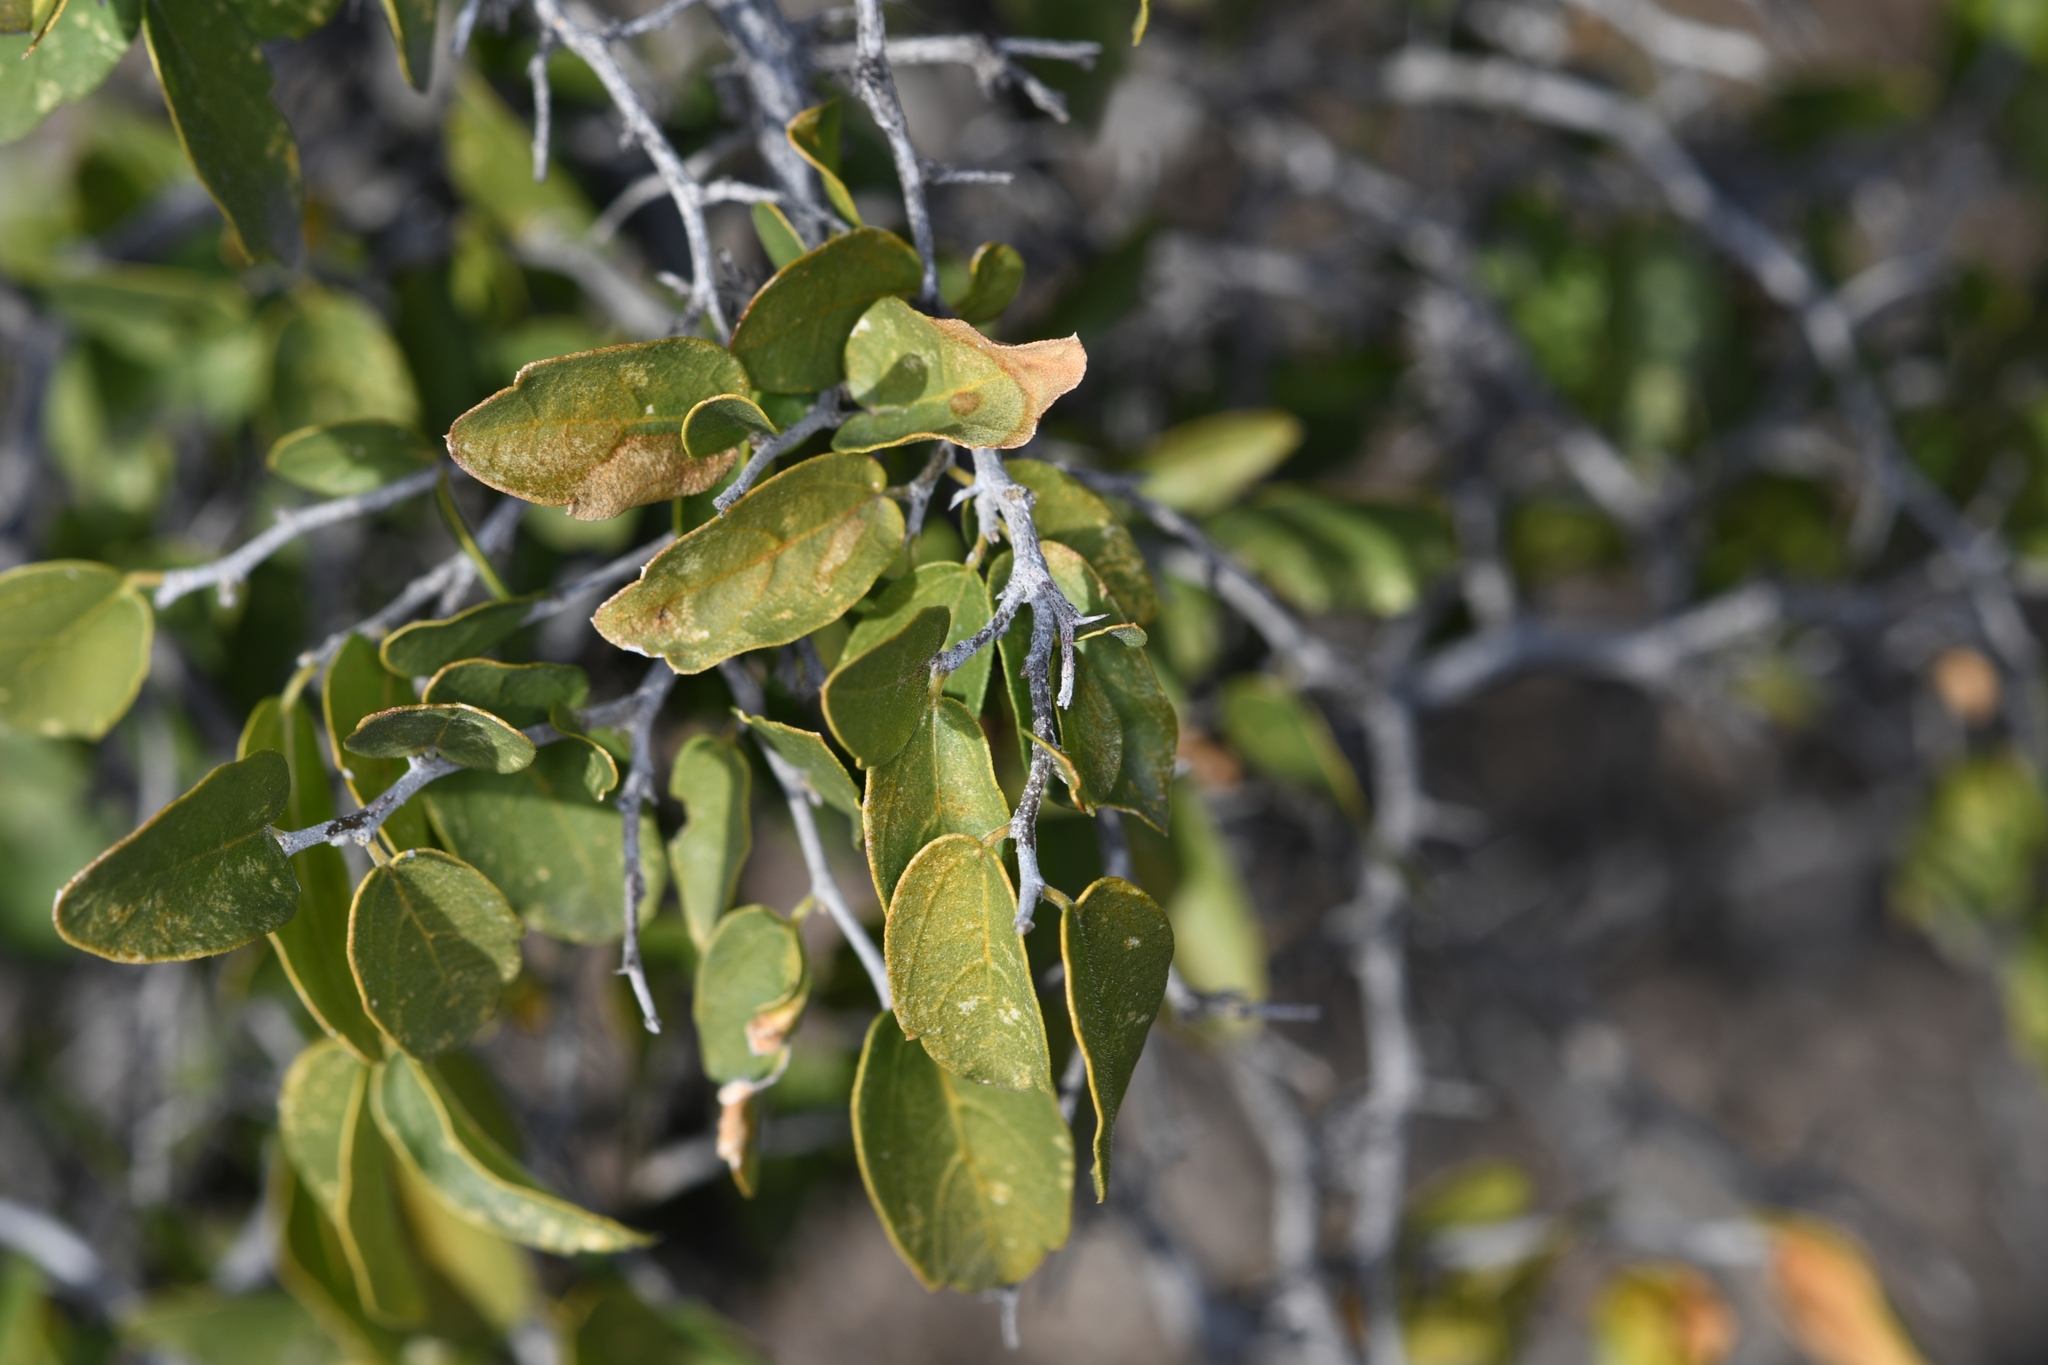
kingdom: Plantae
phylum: Tracheophyta
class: Magnoliopsida
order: Rosales
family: Cannabaceae
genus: Celtis
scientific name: Celtis pallida
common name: Desert hackberry
